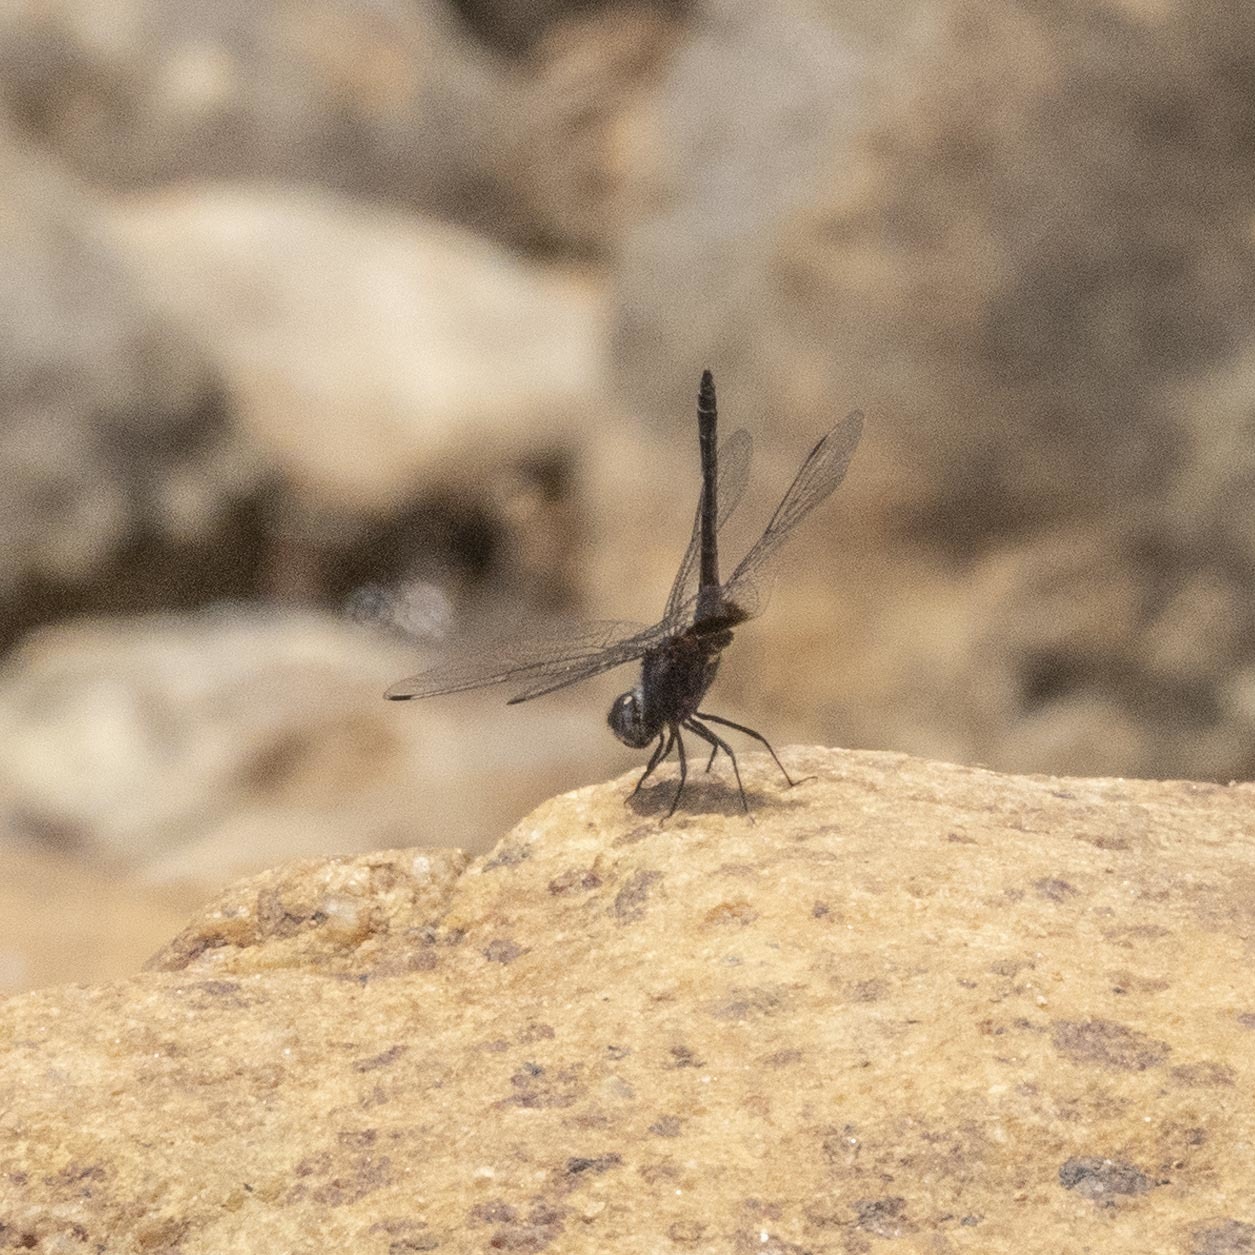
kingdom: Animalia
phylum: Arthropoda
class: Insecta
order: Odonata
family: Libellulidae
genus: Trithemis
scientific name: Trithemis festiva
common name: Indigo dropwing
